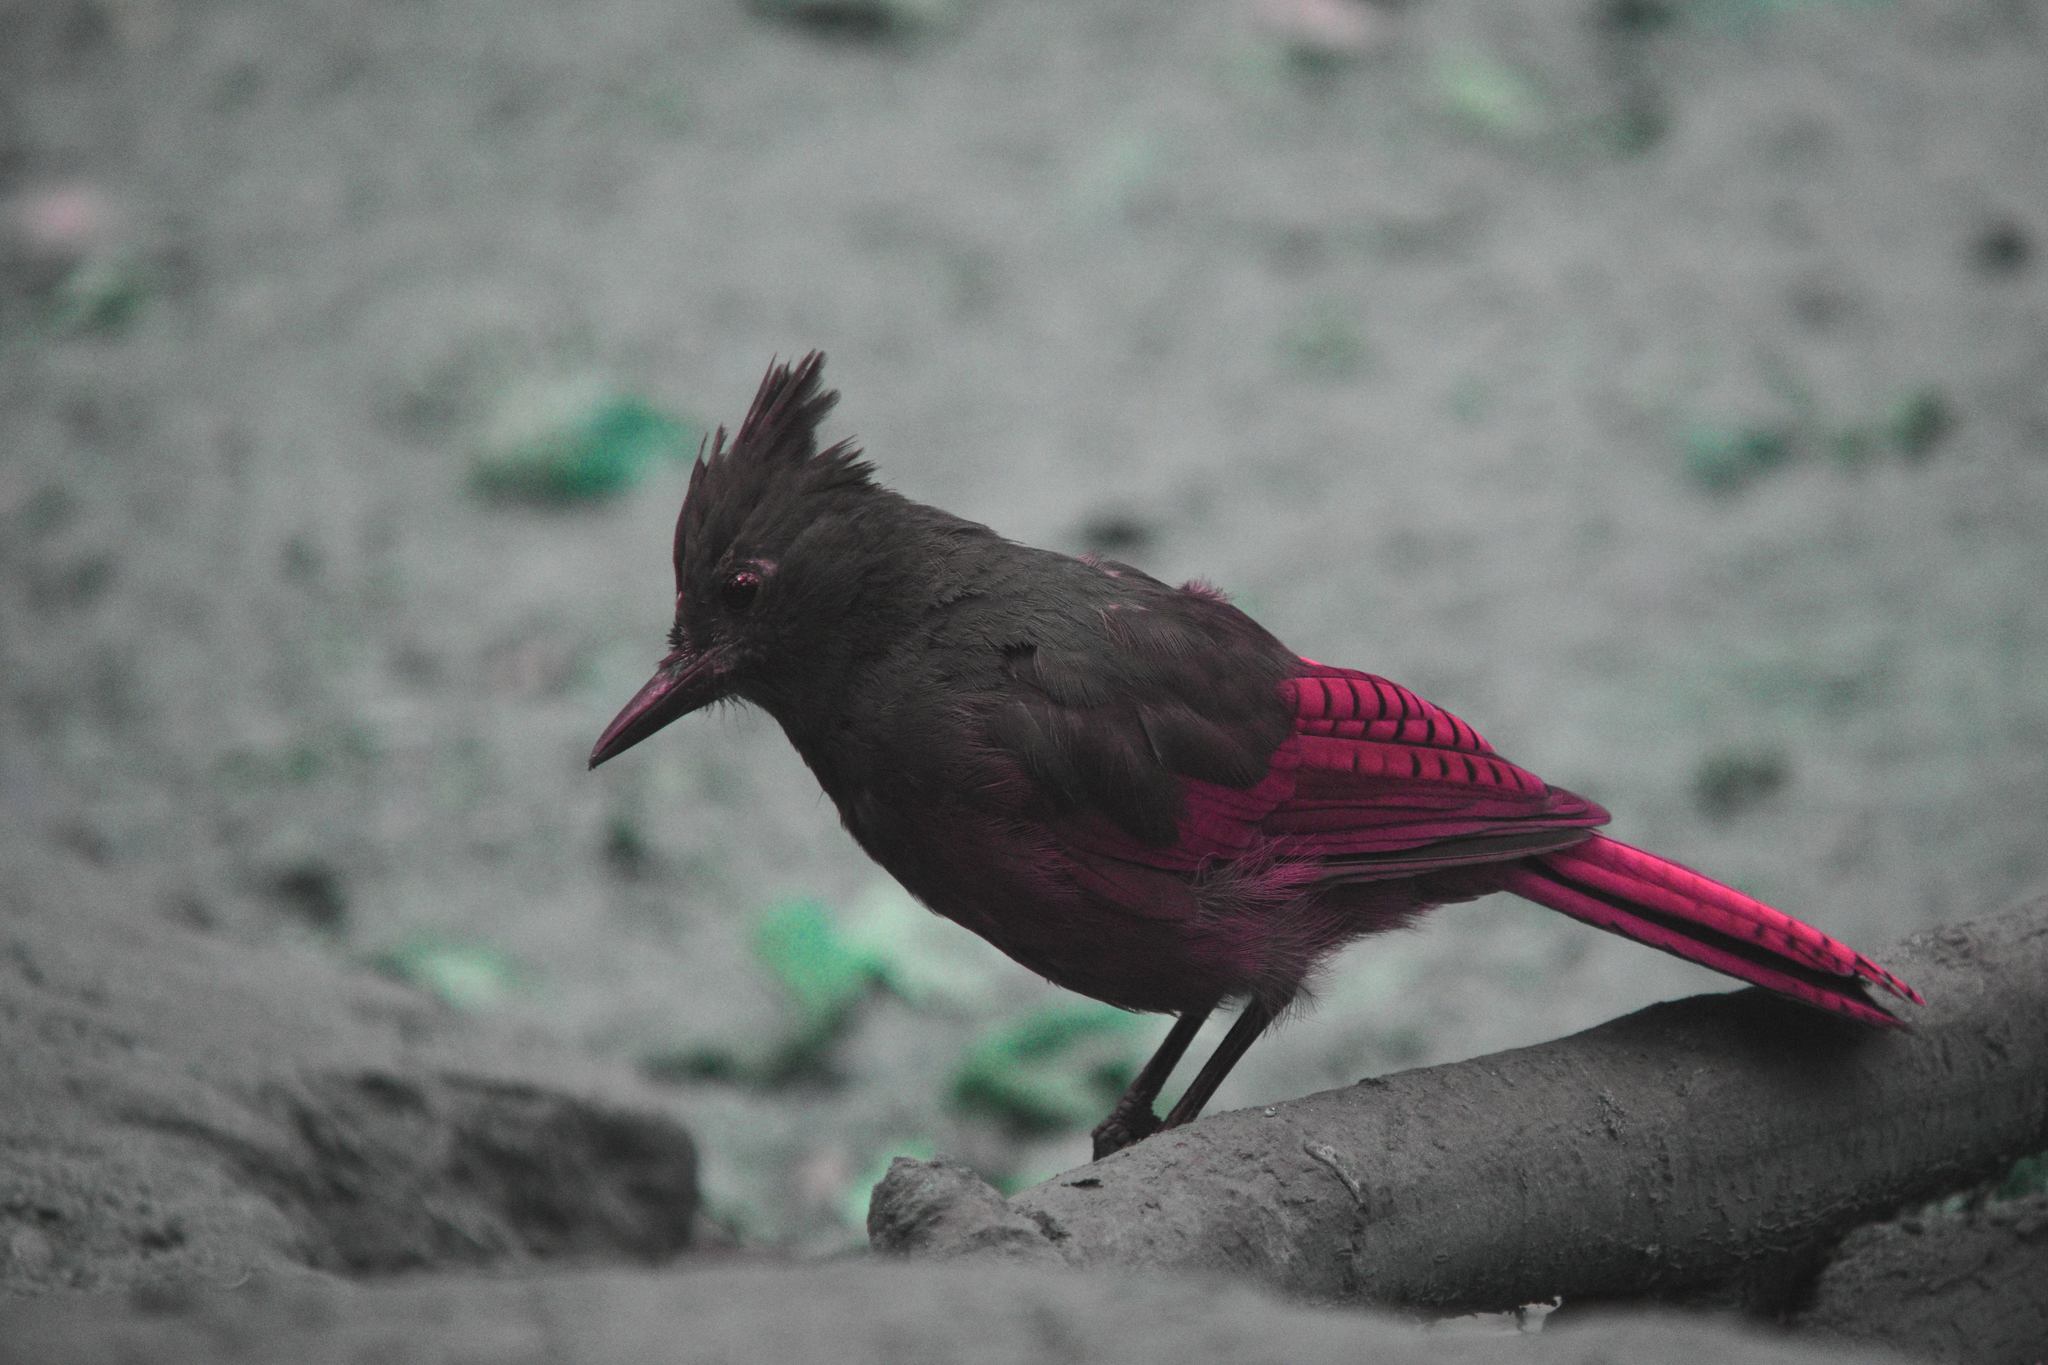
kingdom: Animalia
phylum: Chordata
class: Aves
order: Passeriformes
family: Corvidae
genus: Cyanocitta
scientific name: Cyanocitta stelleri
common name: Steller's jay
